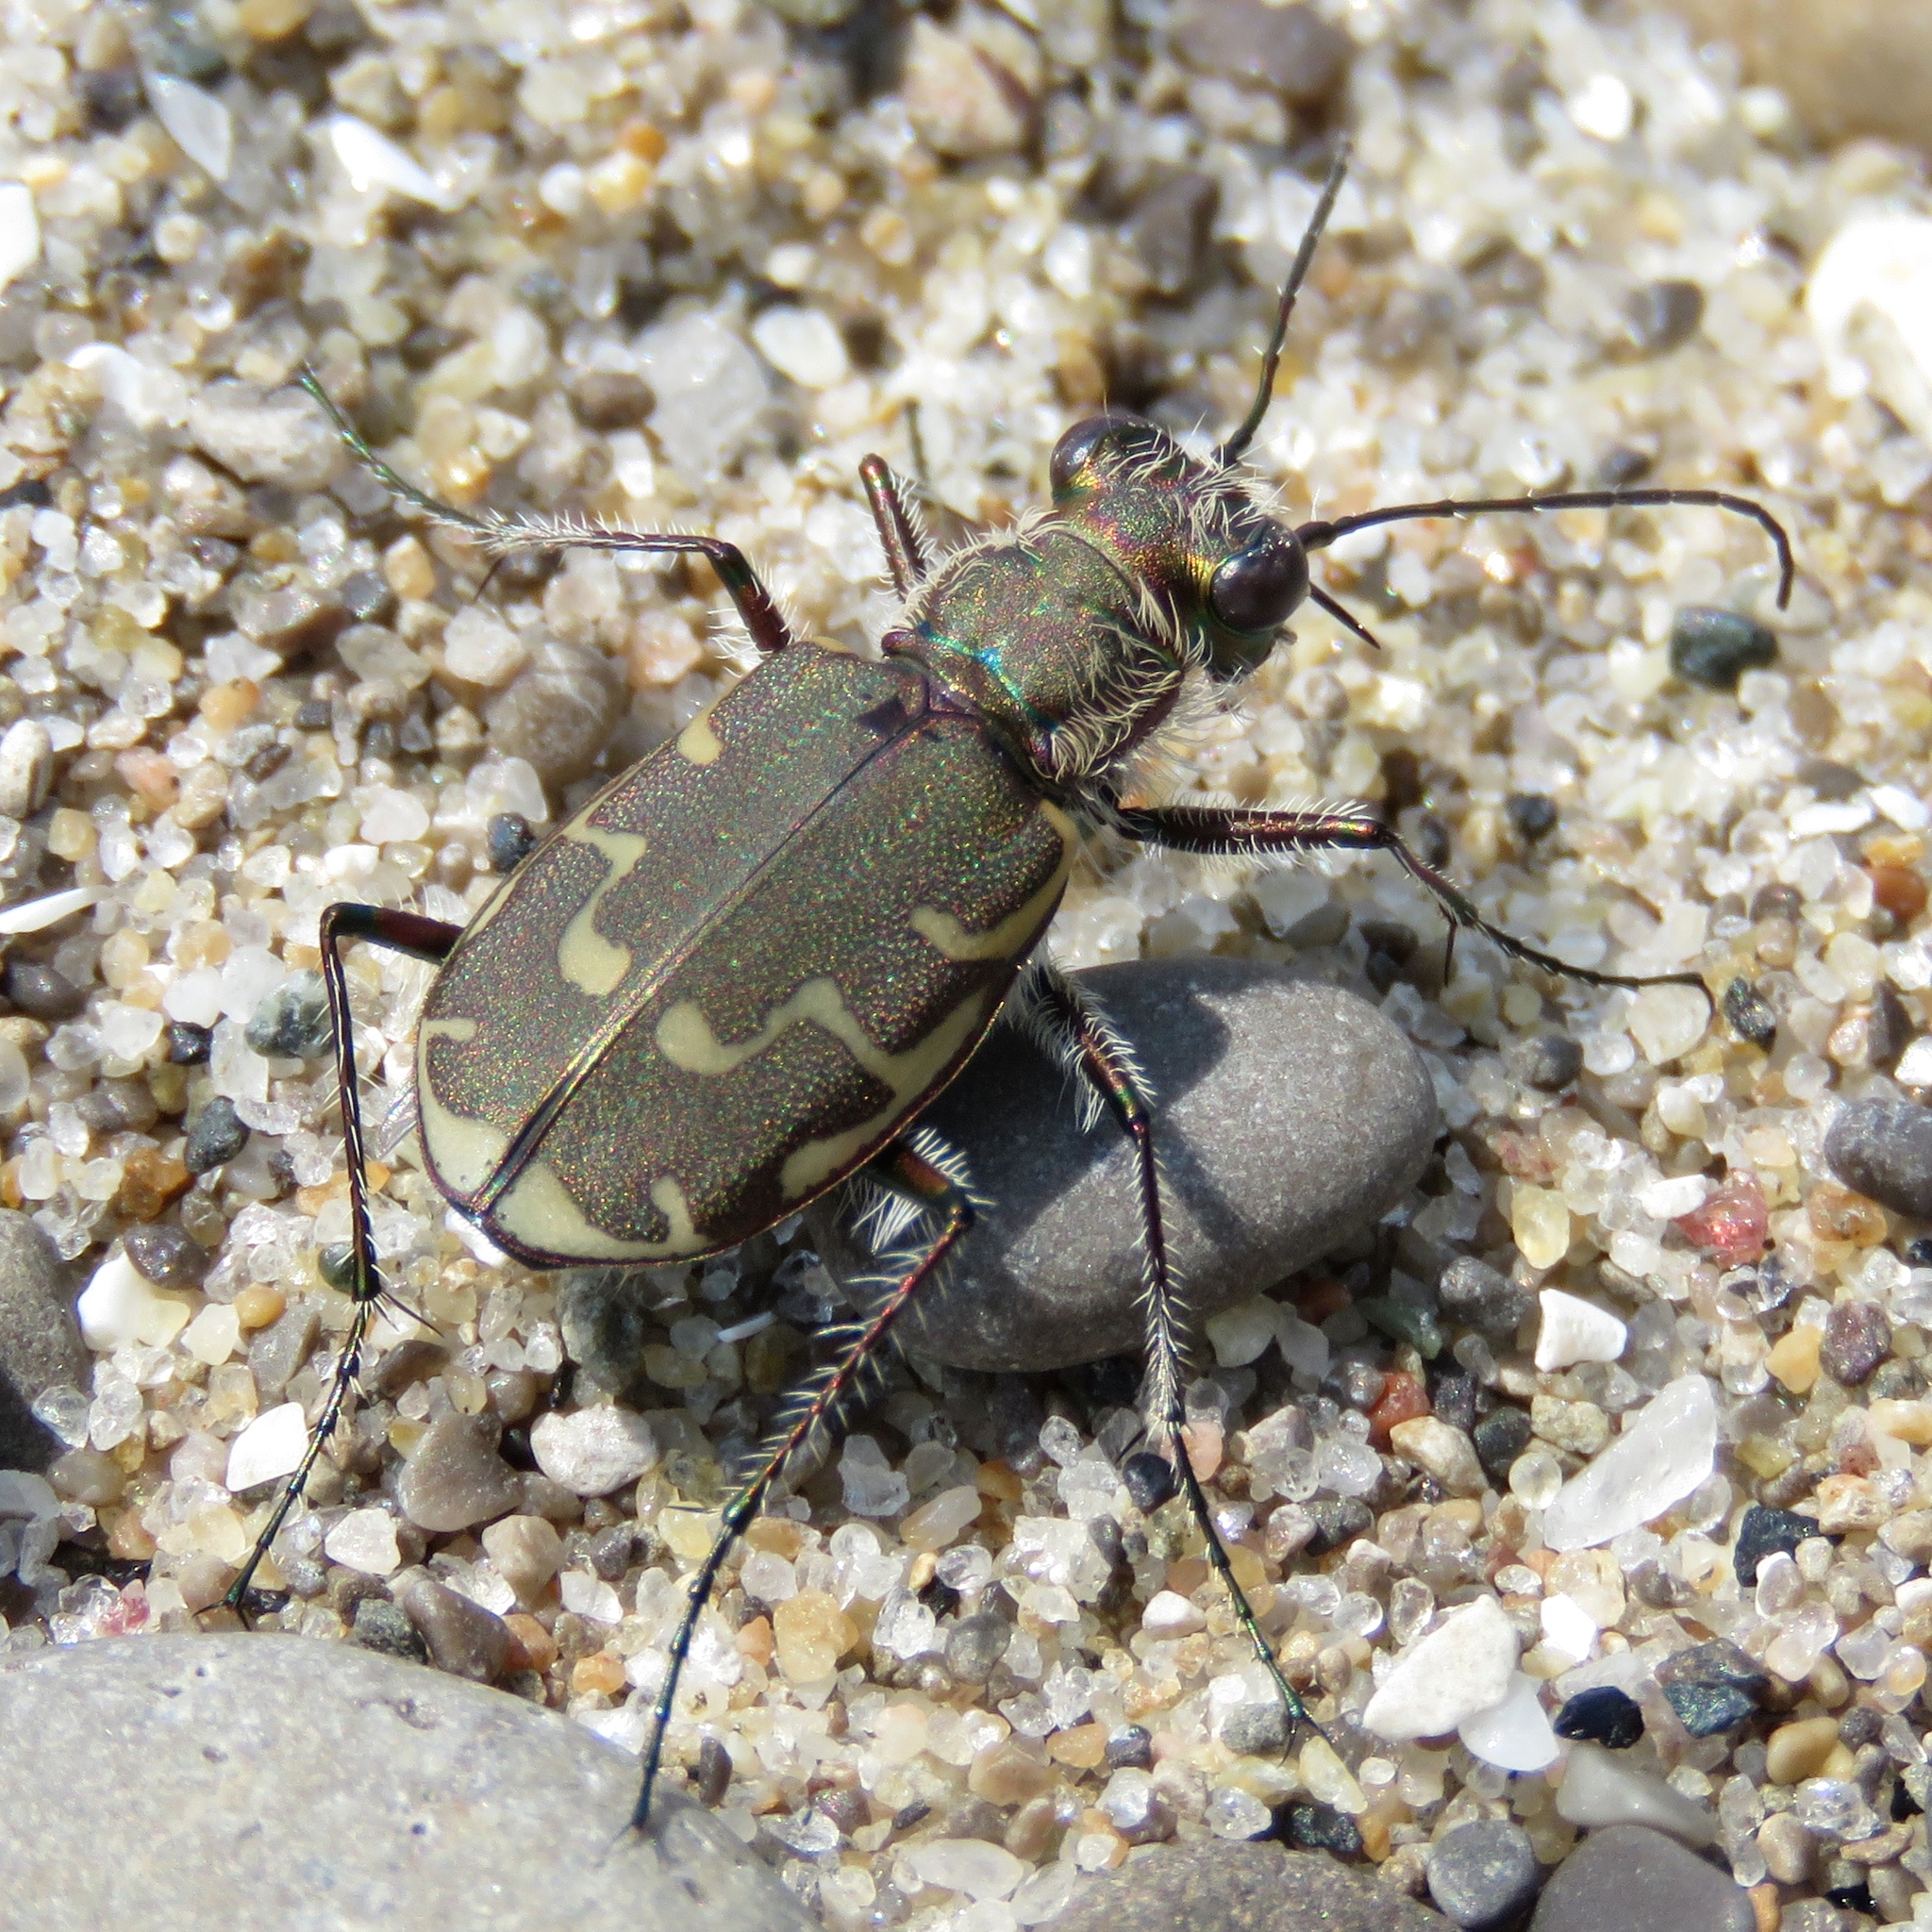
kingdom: Animalia
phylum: Arthropoda
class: Insecta
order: Coleoptera
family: Carabidae
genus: Cicindela
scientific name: Cicindela repanda
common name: Bronzed tiger beetle
